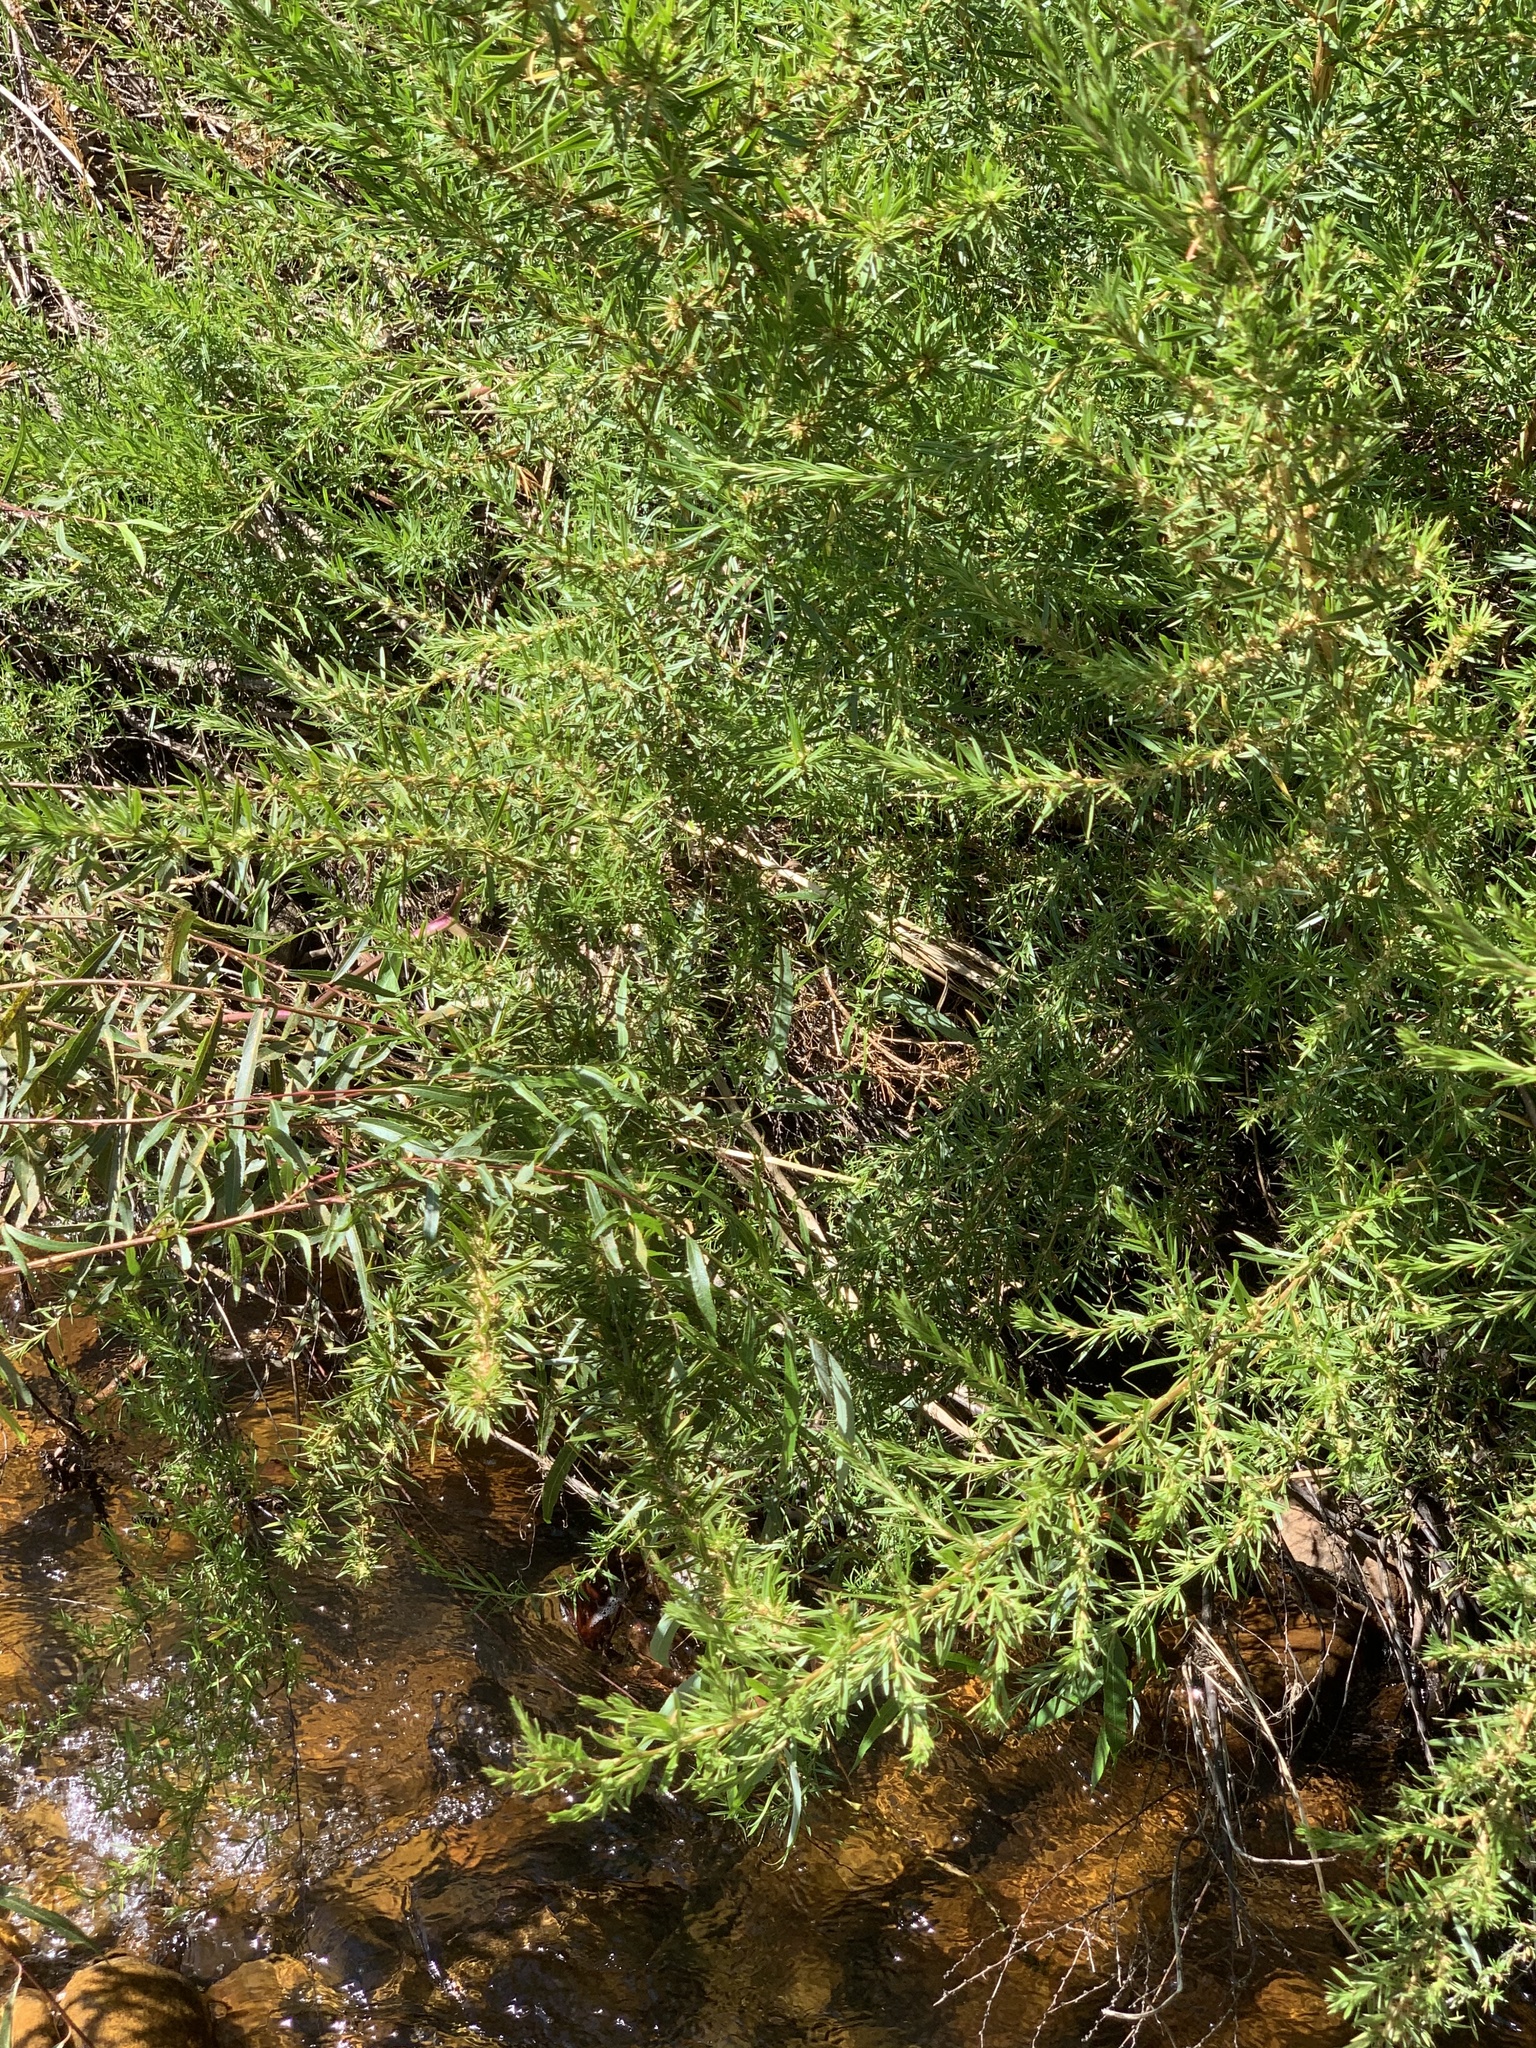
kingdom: Plantae
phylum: Tracheophyta
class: Magnoliopsida
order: Rosales
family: Rosaceae
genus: Cliffortia
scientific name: Cliffortia strobilifera
